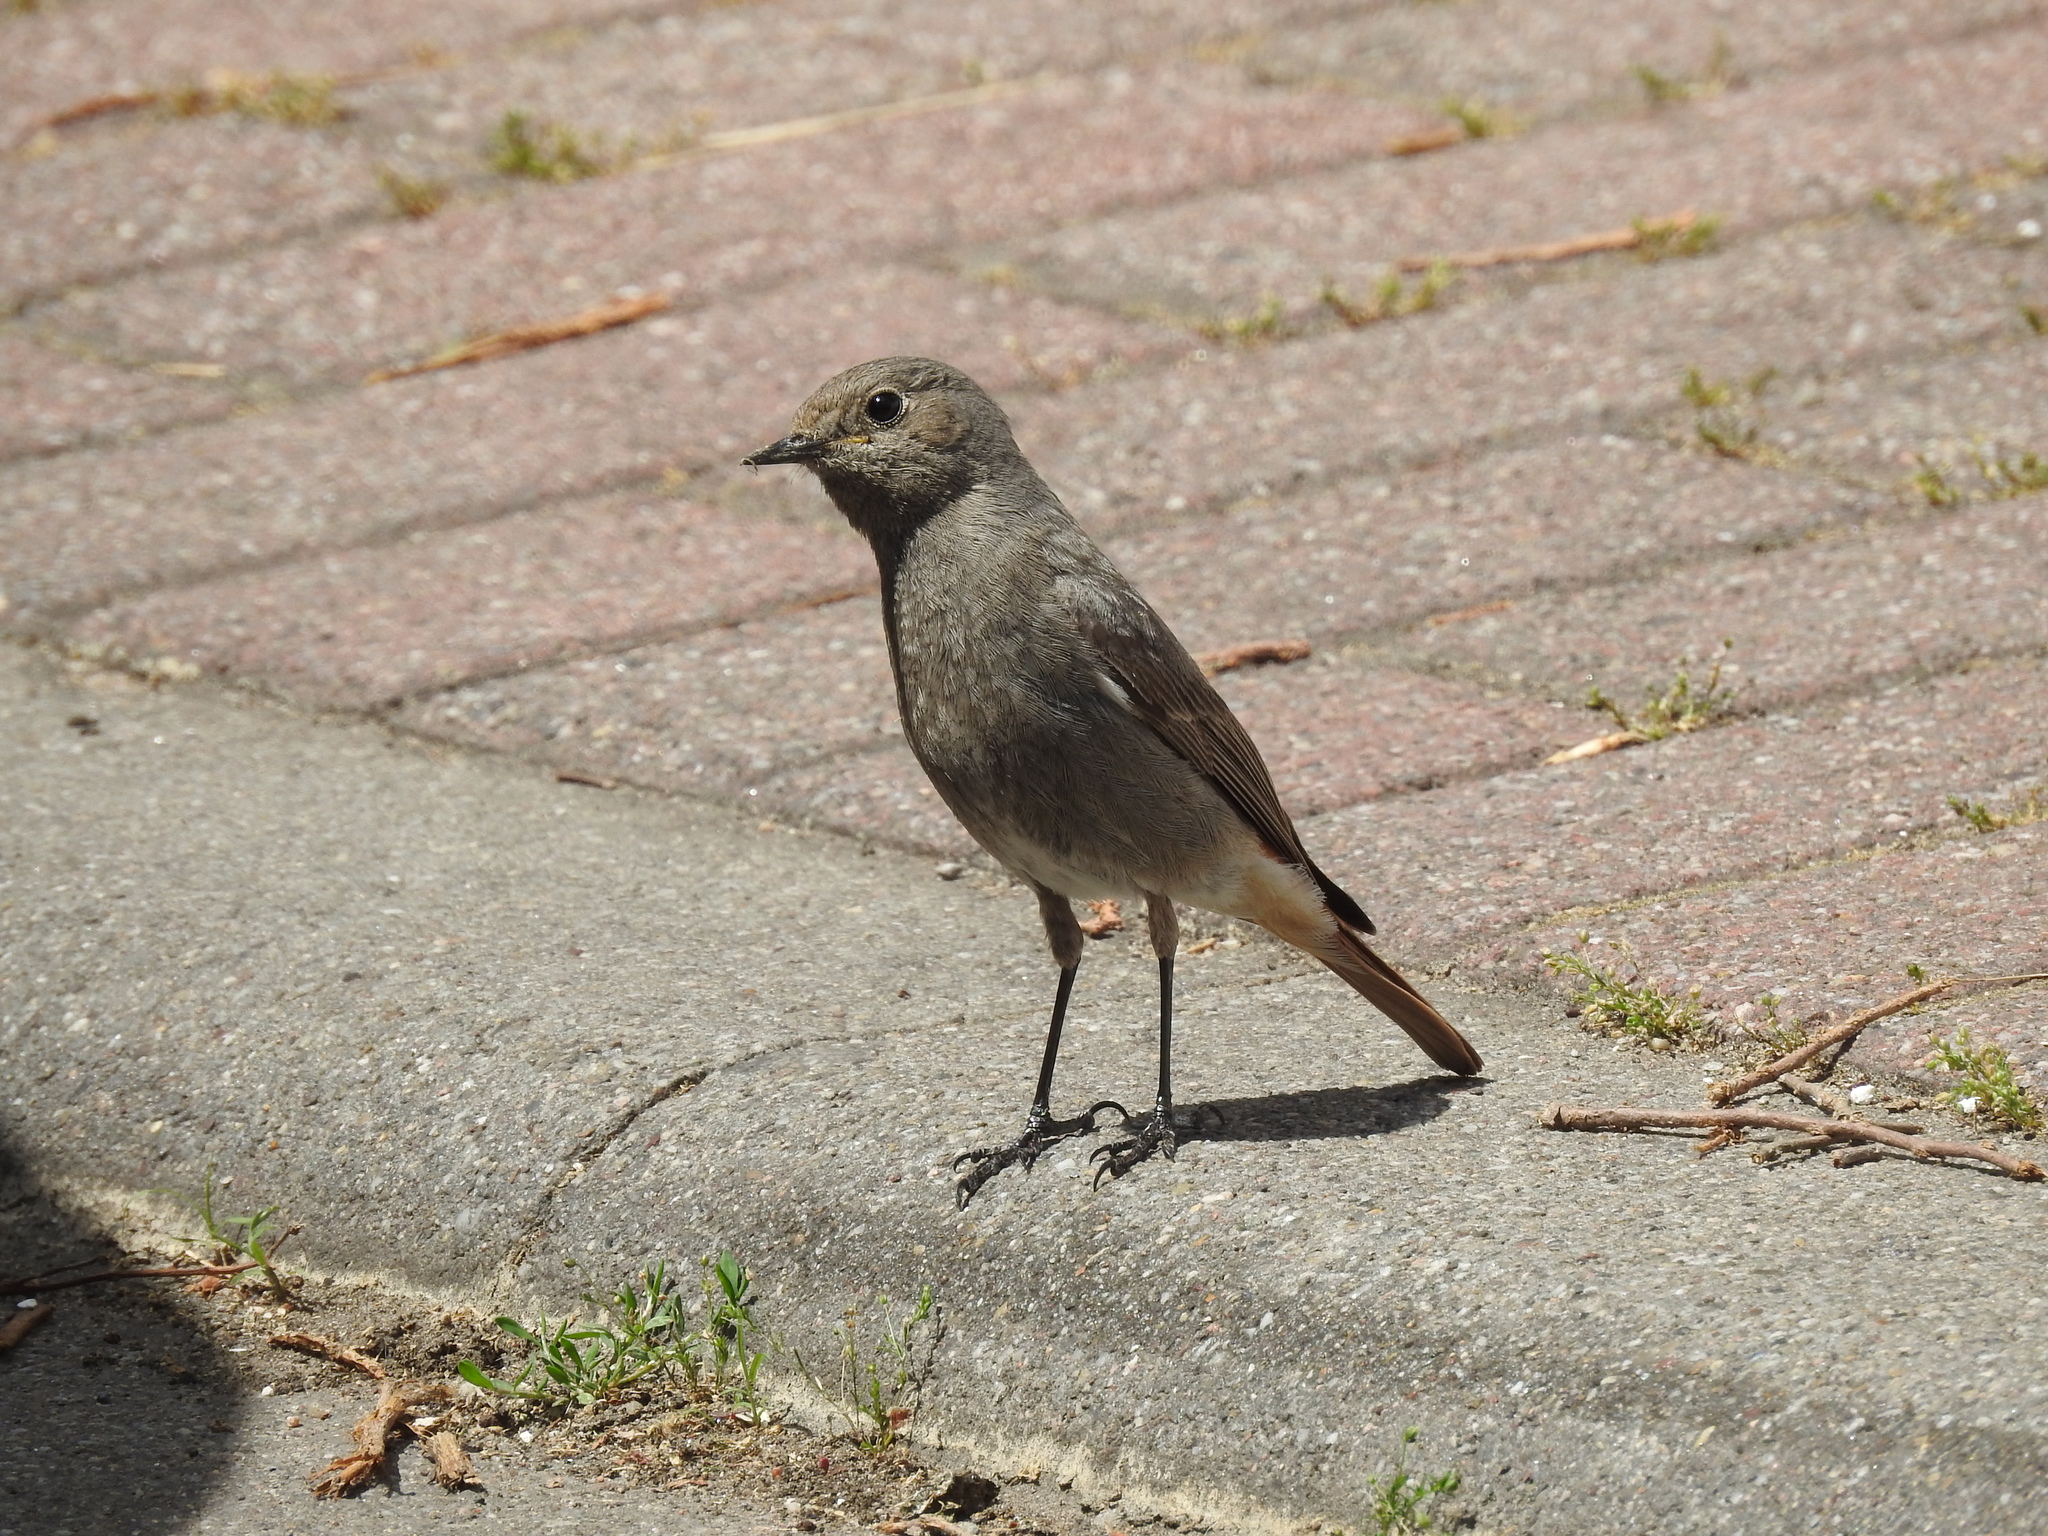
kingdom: Animalia
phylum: Chordata
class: Aves
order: Passeriformes
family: Muscicapidae
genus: Phoenicurus
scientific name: Phoenicurus ochruros
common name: Black redstart
